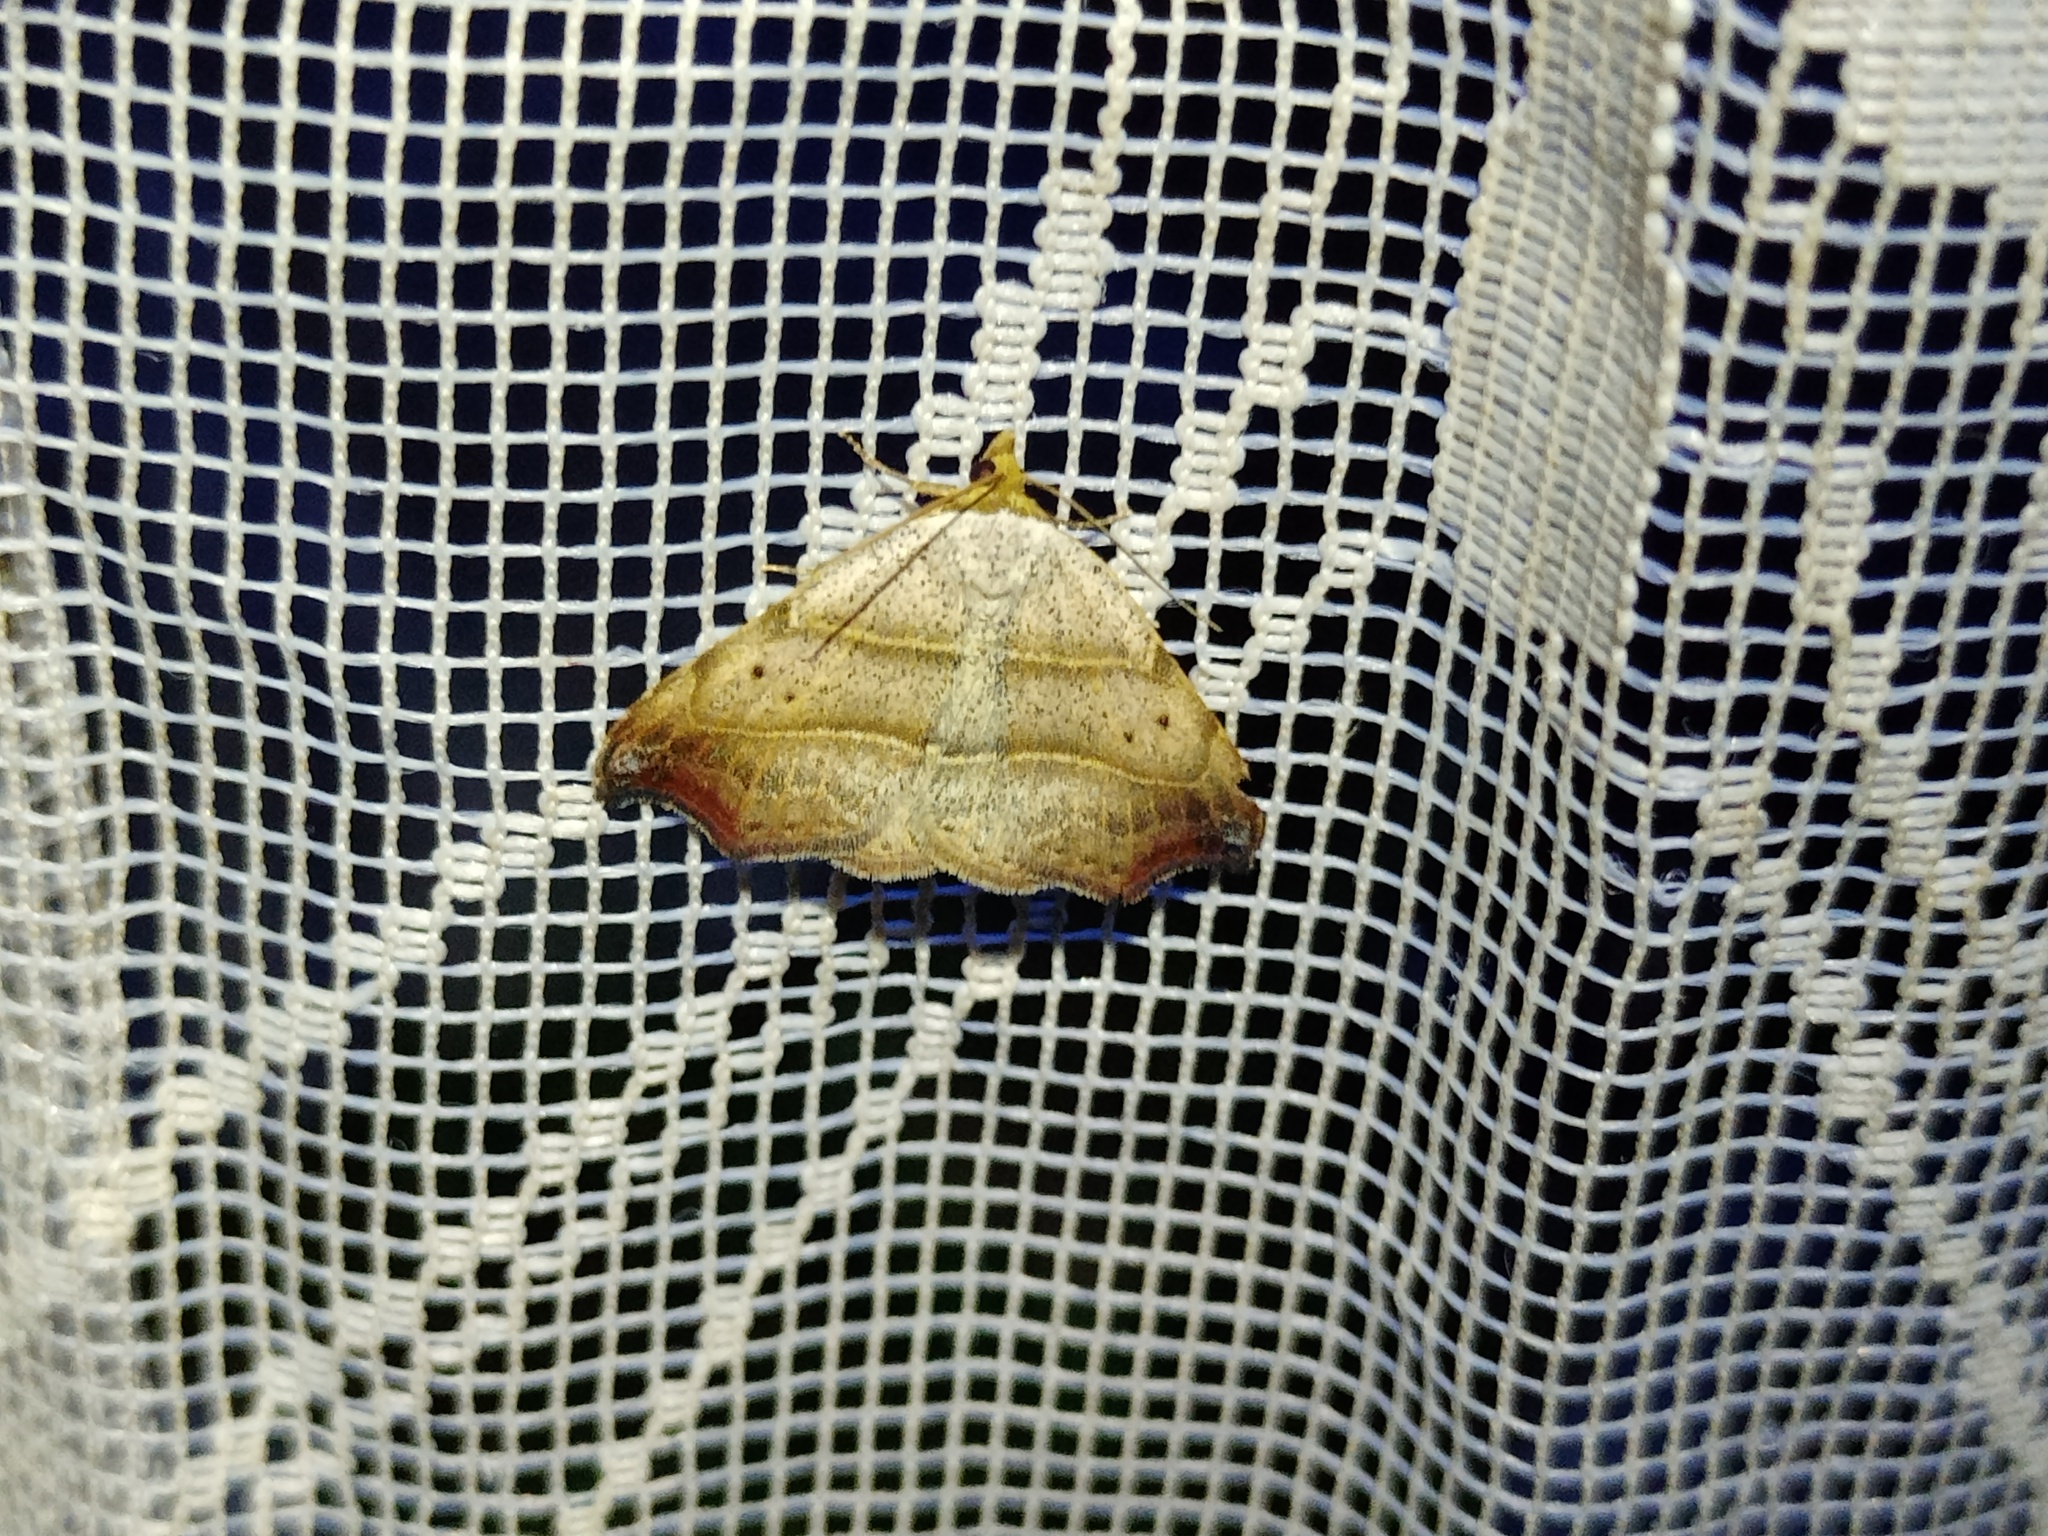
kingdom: Animalia
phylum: Arthropoda
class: Insecta
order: Lepidoptera
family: Erebidae
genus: Laspeyria
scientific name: Laspeyria flexula
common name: Beautiful hook-tip
